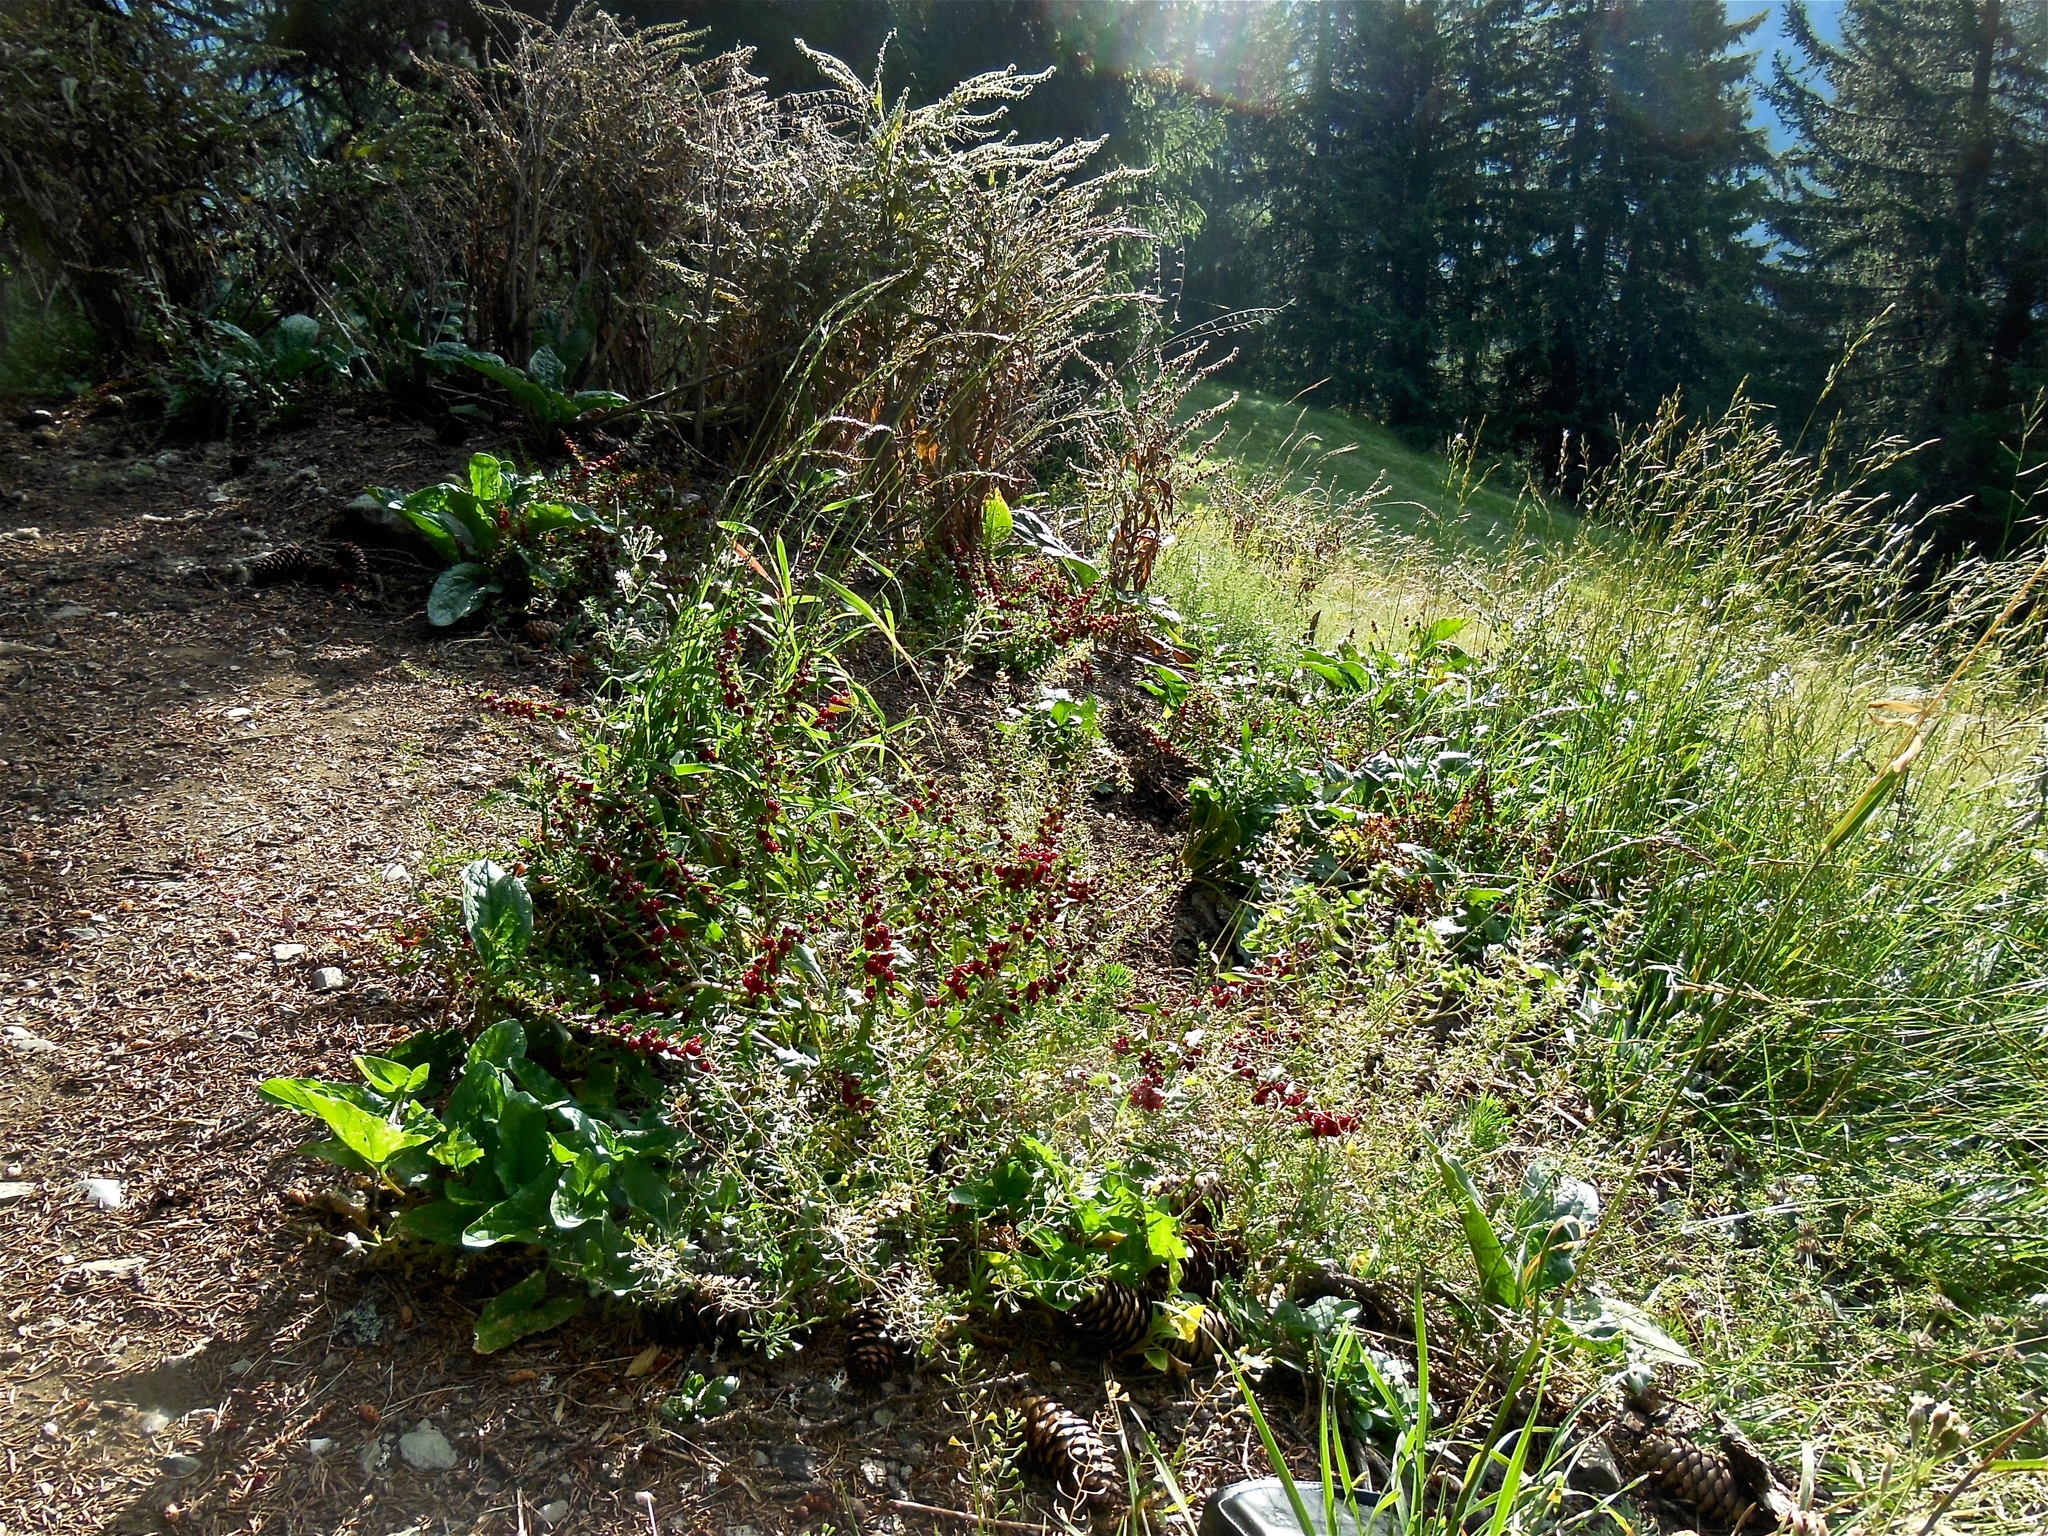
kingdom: Plantae
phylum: Tracheophyta
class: Magnoliopsida
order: Caryophyllales
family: Amaranthaceae
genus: Blitum
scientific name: Blitum virgatum
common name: Strawberry goosefoot
